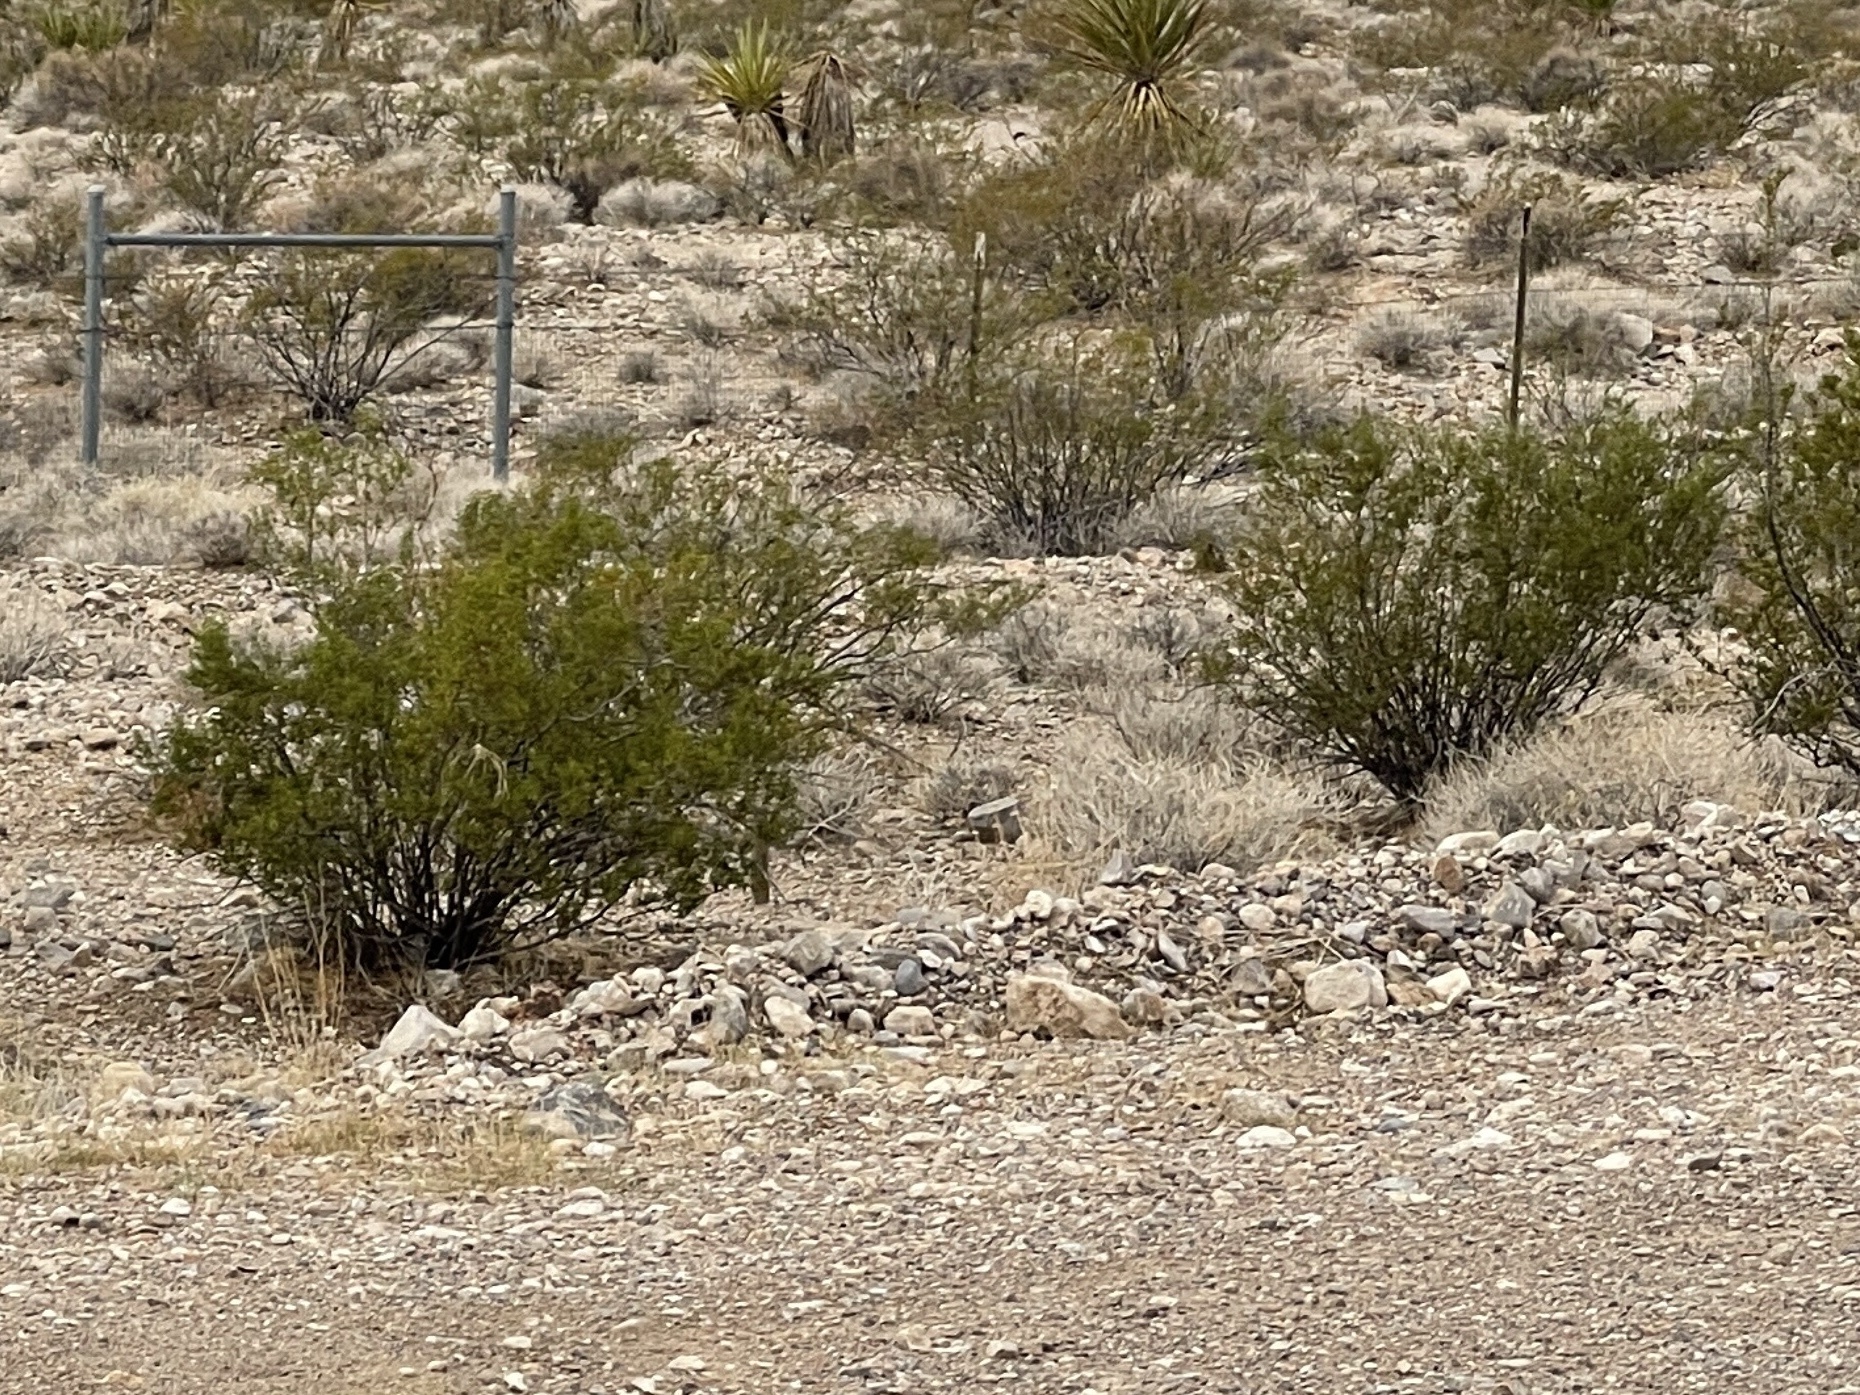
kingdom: Plantae
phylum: Tracheophyta
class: Magnoliopsida
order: Zygophyllales
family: Zygophyllaceae
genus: Larrea
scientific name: Larrea tridentata
